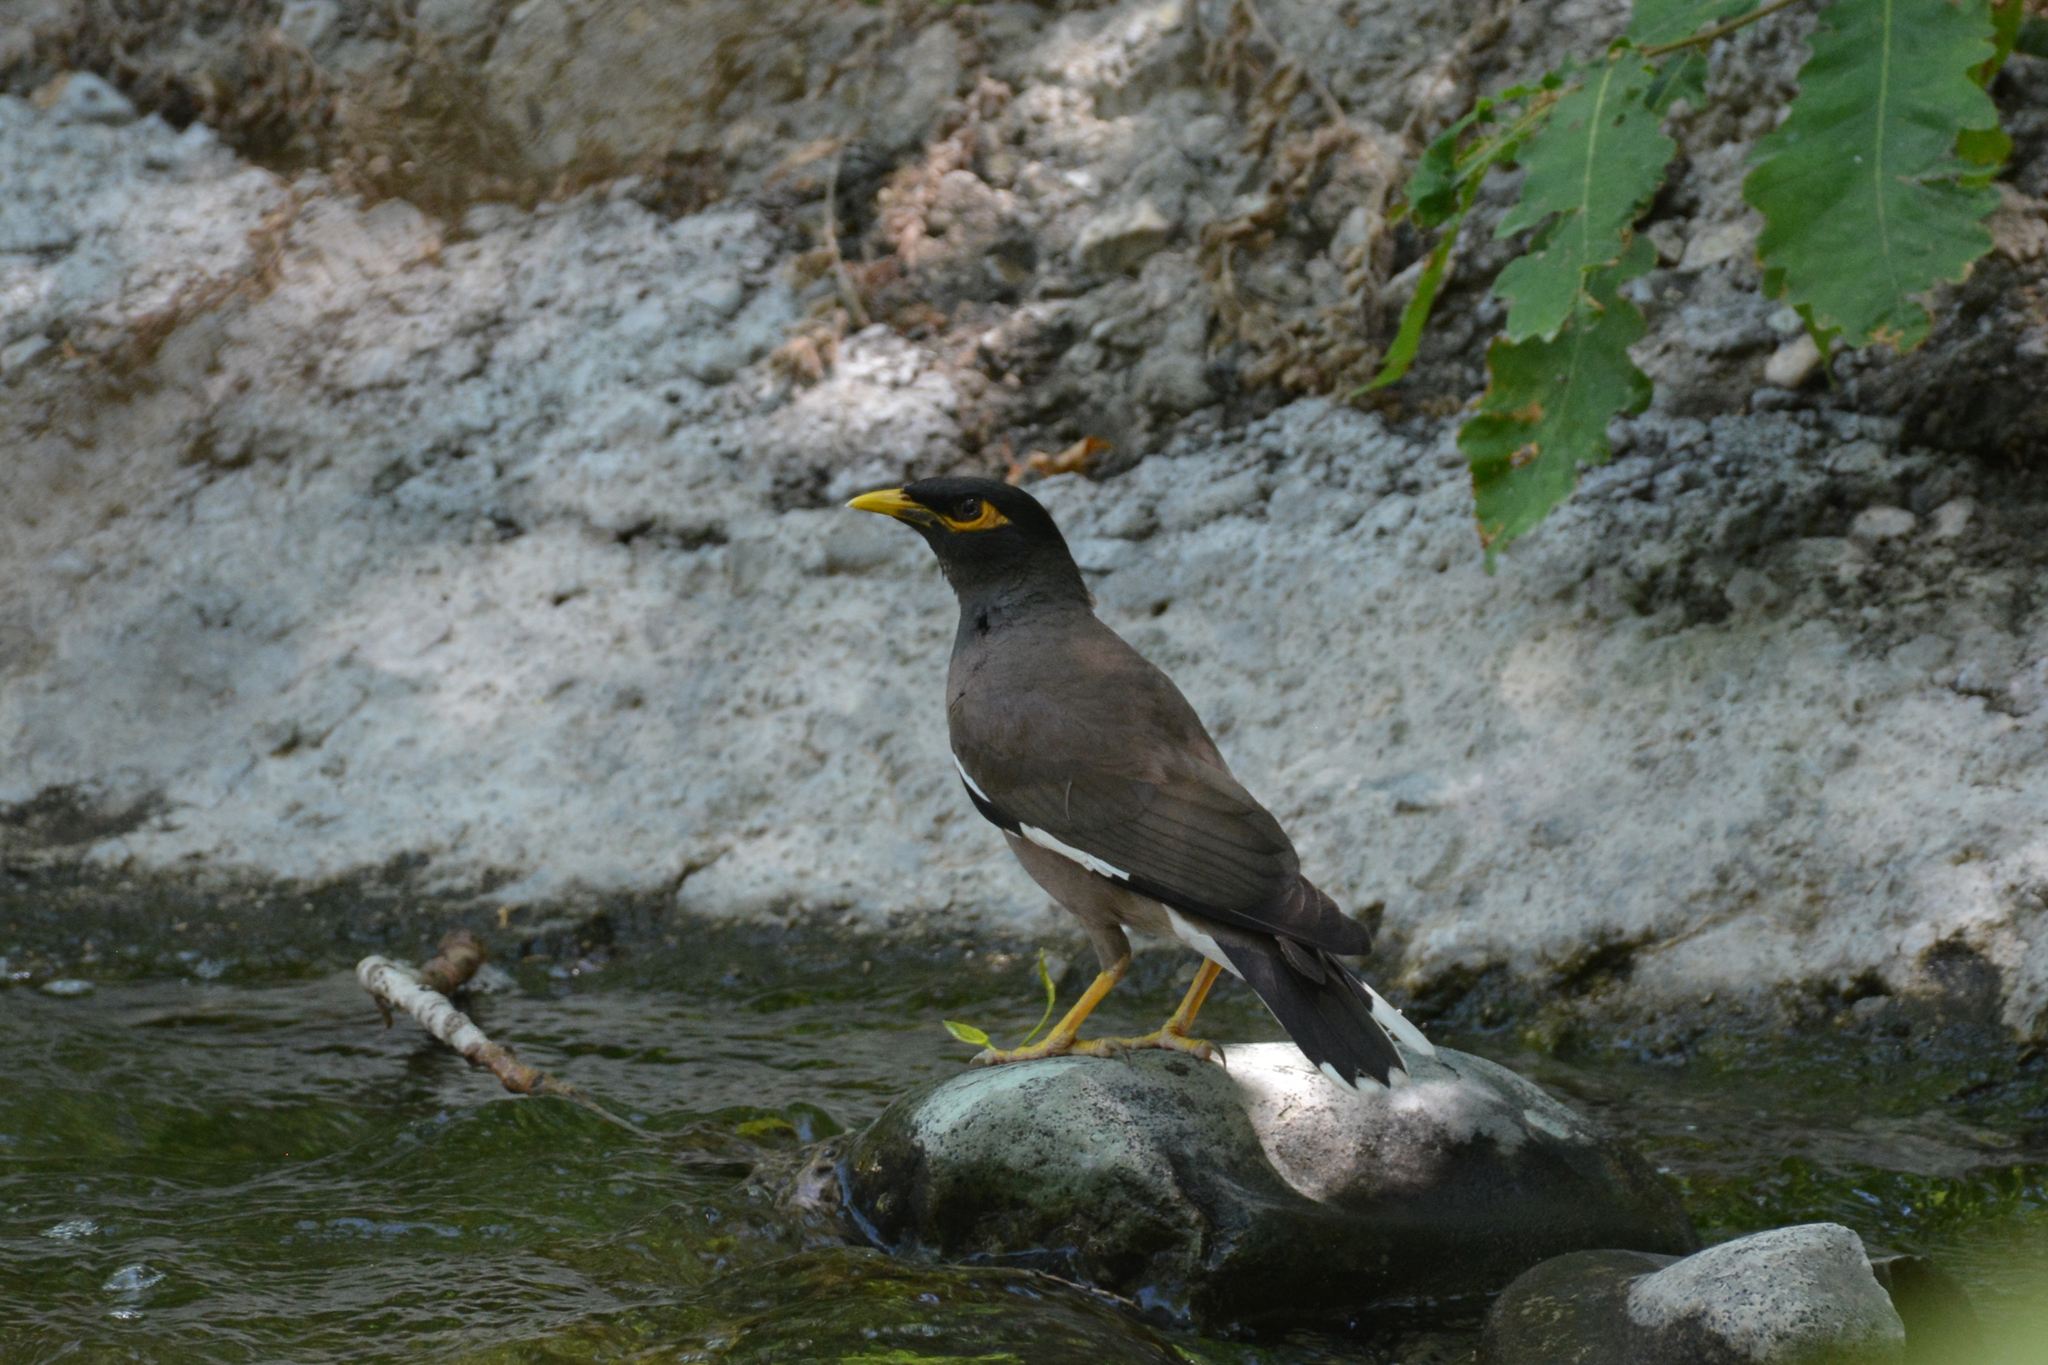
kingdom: Animalia
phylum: Chordata
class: Aves
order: Passeriformes
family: Sturnidae
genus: Acridotheres
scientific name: Acridotheres tristis
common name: Common myna
